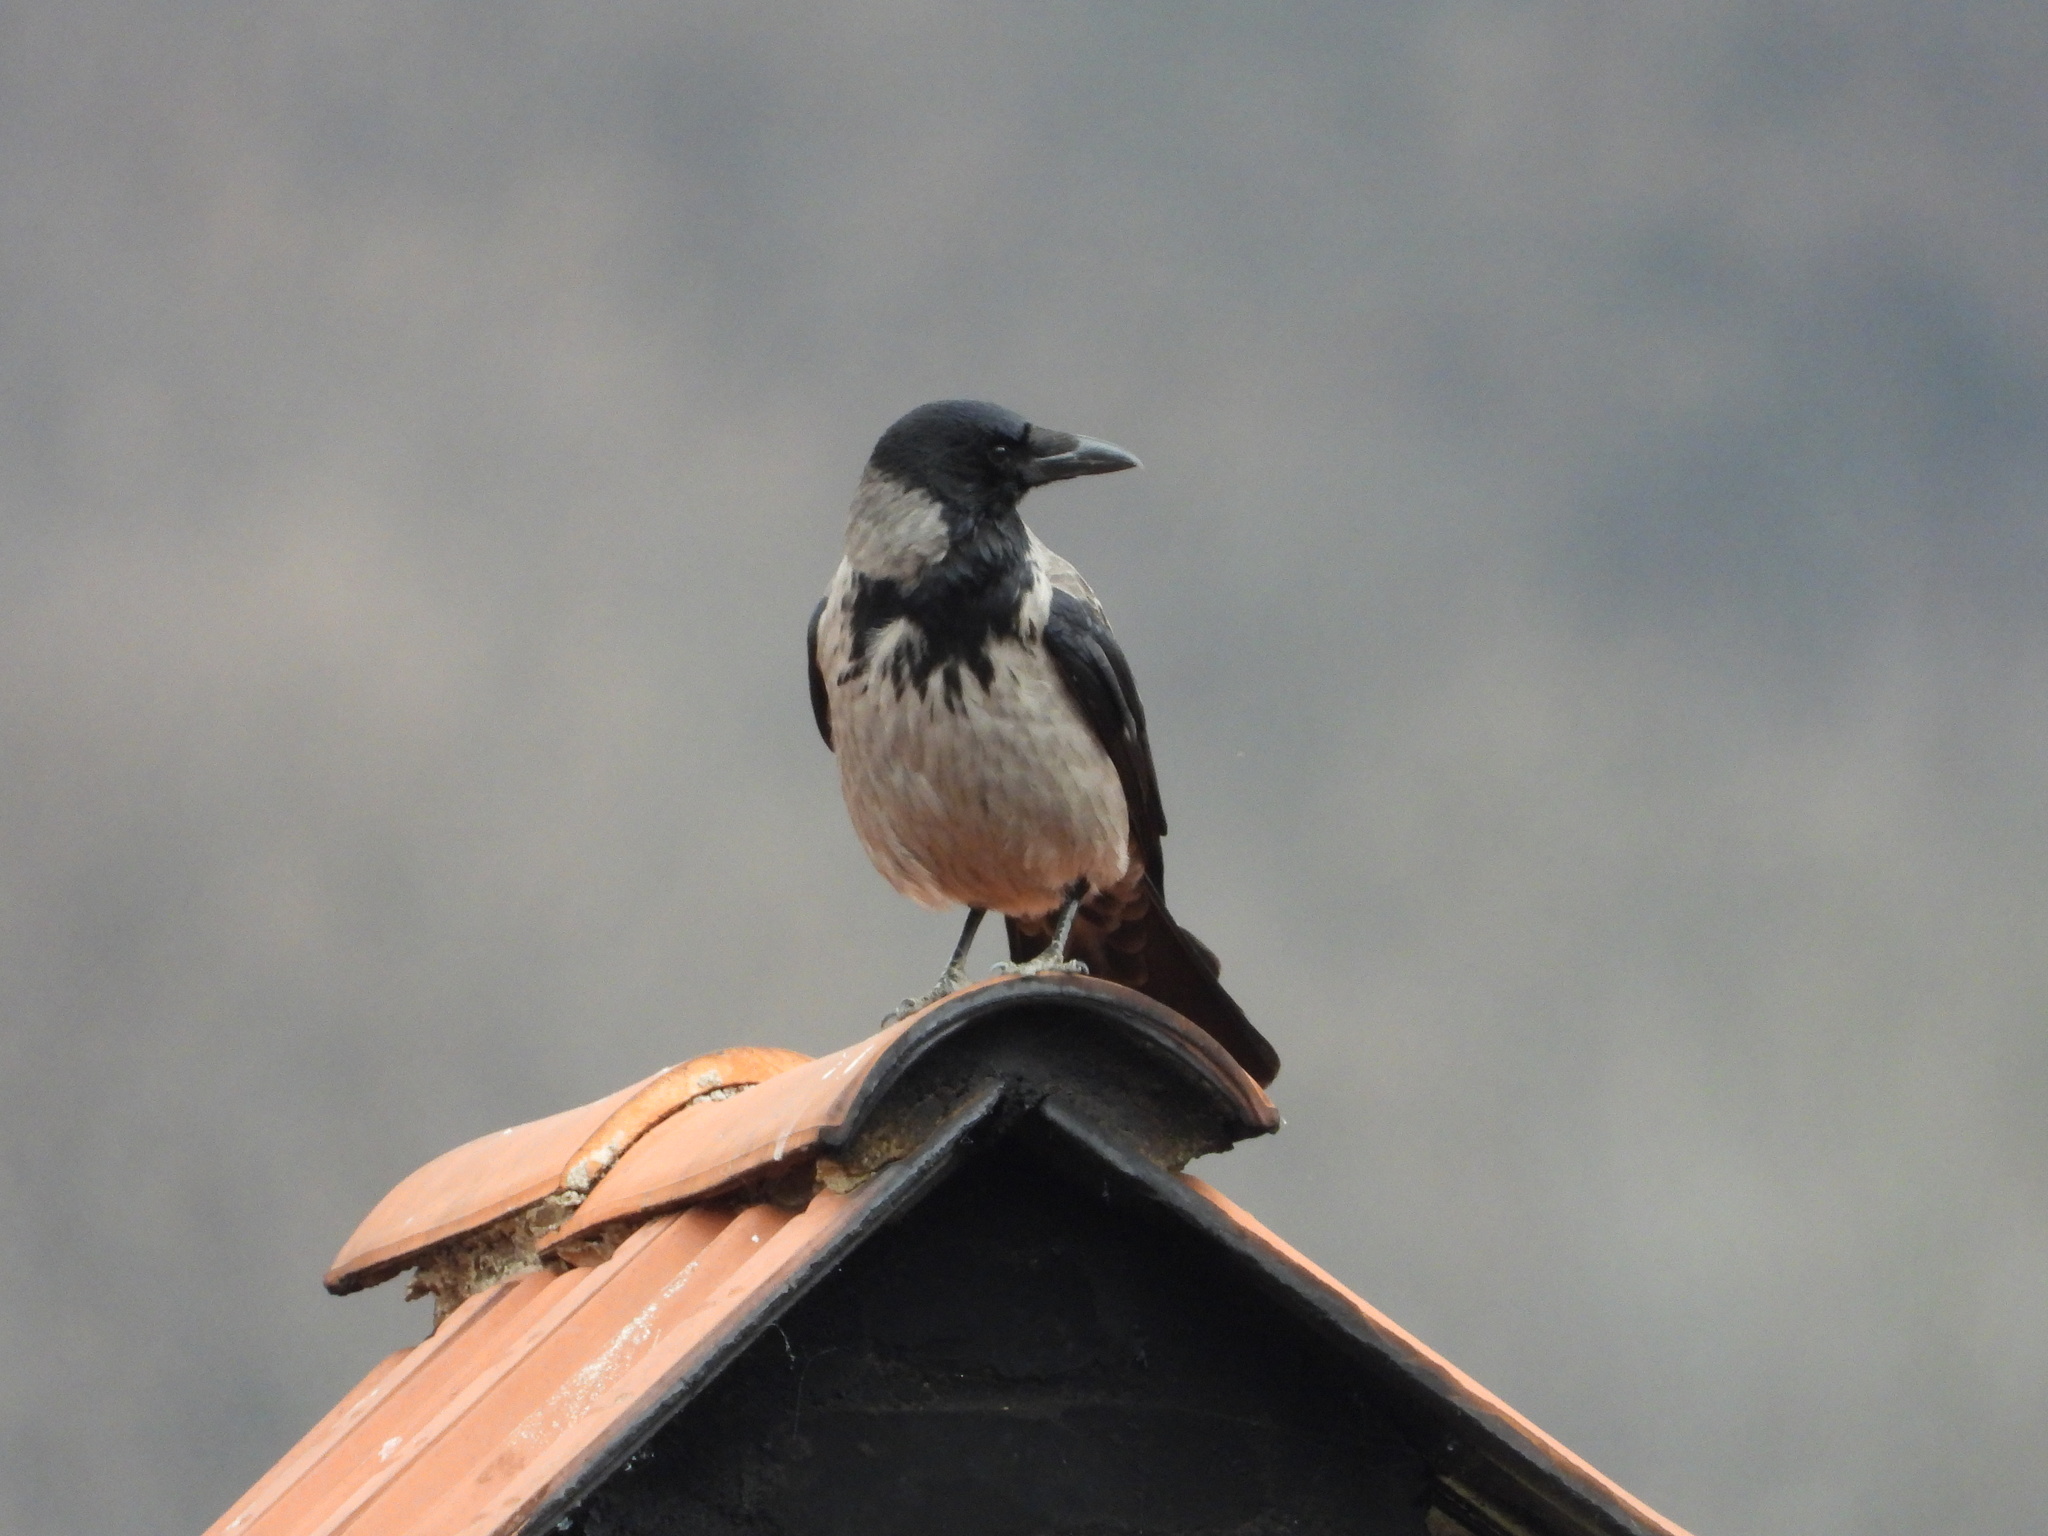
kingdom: Animalia
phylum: Chordata
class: Aves
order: Passeriformes
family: Corvidae
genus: Corvus
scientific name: Corvus cornix
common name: Hooded crow
